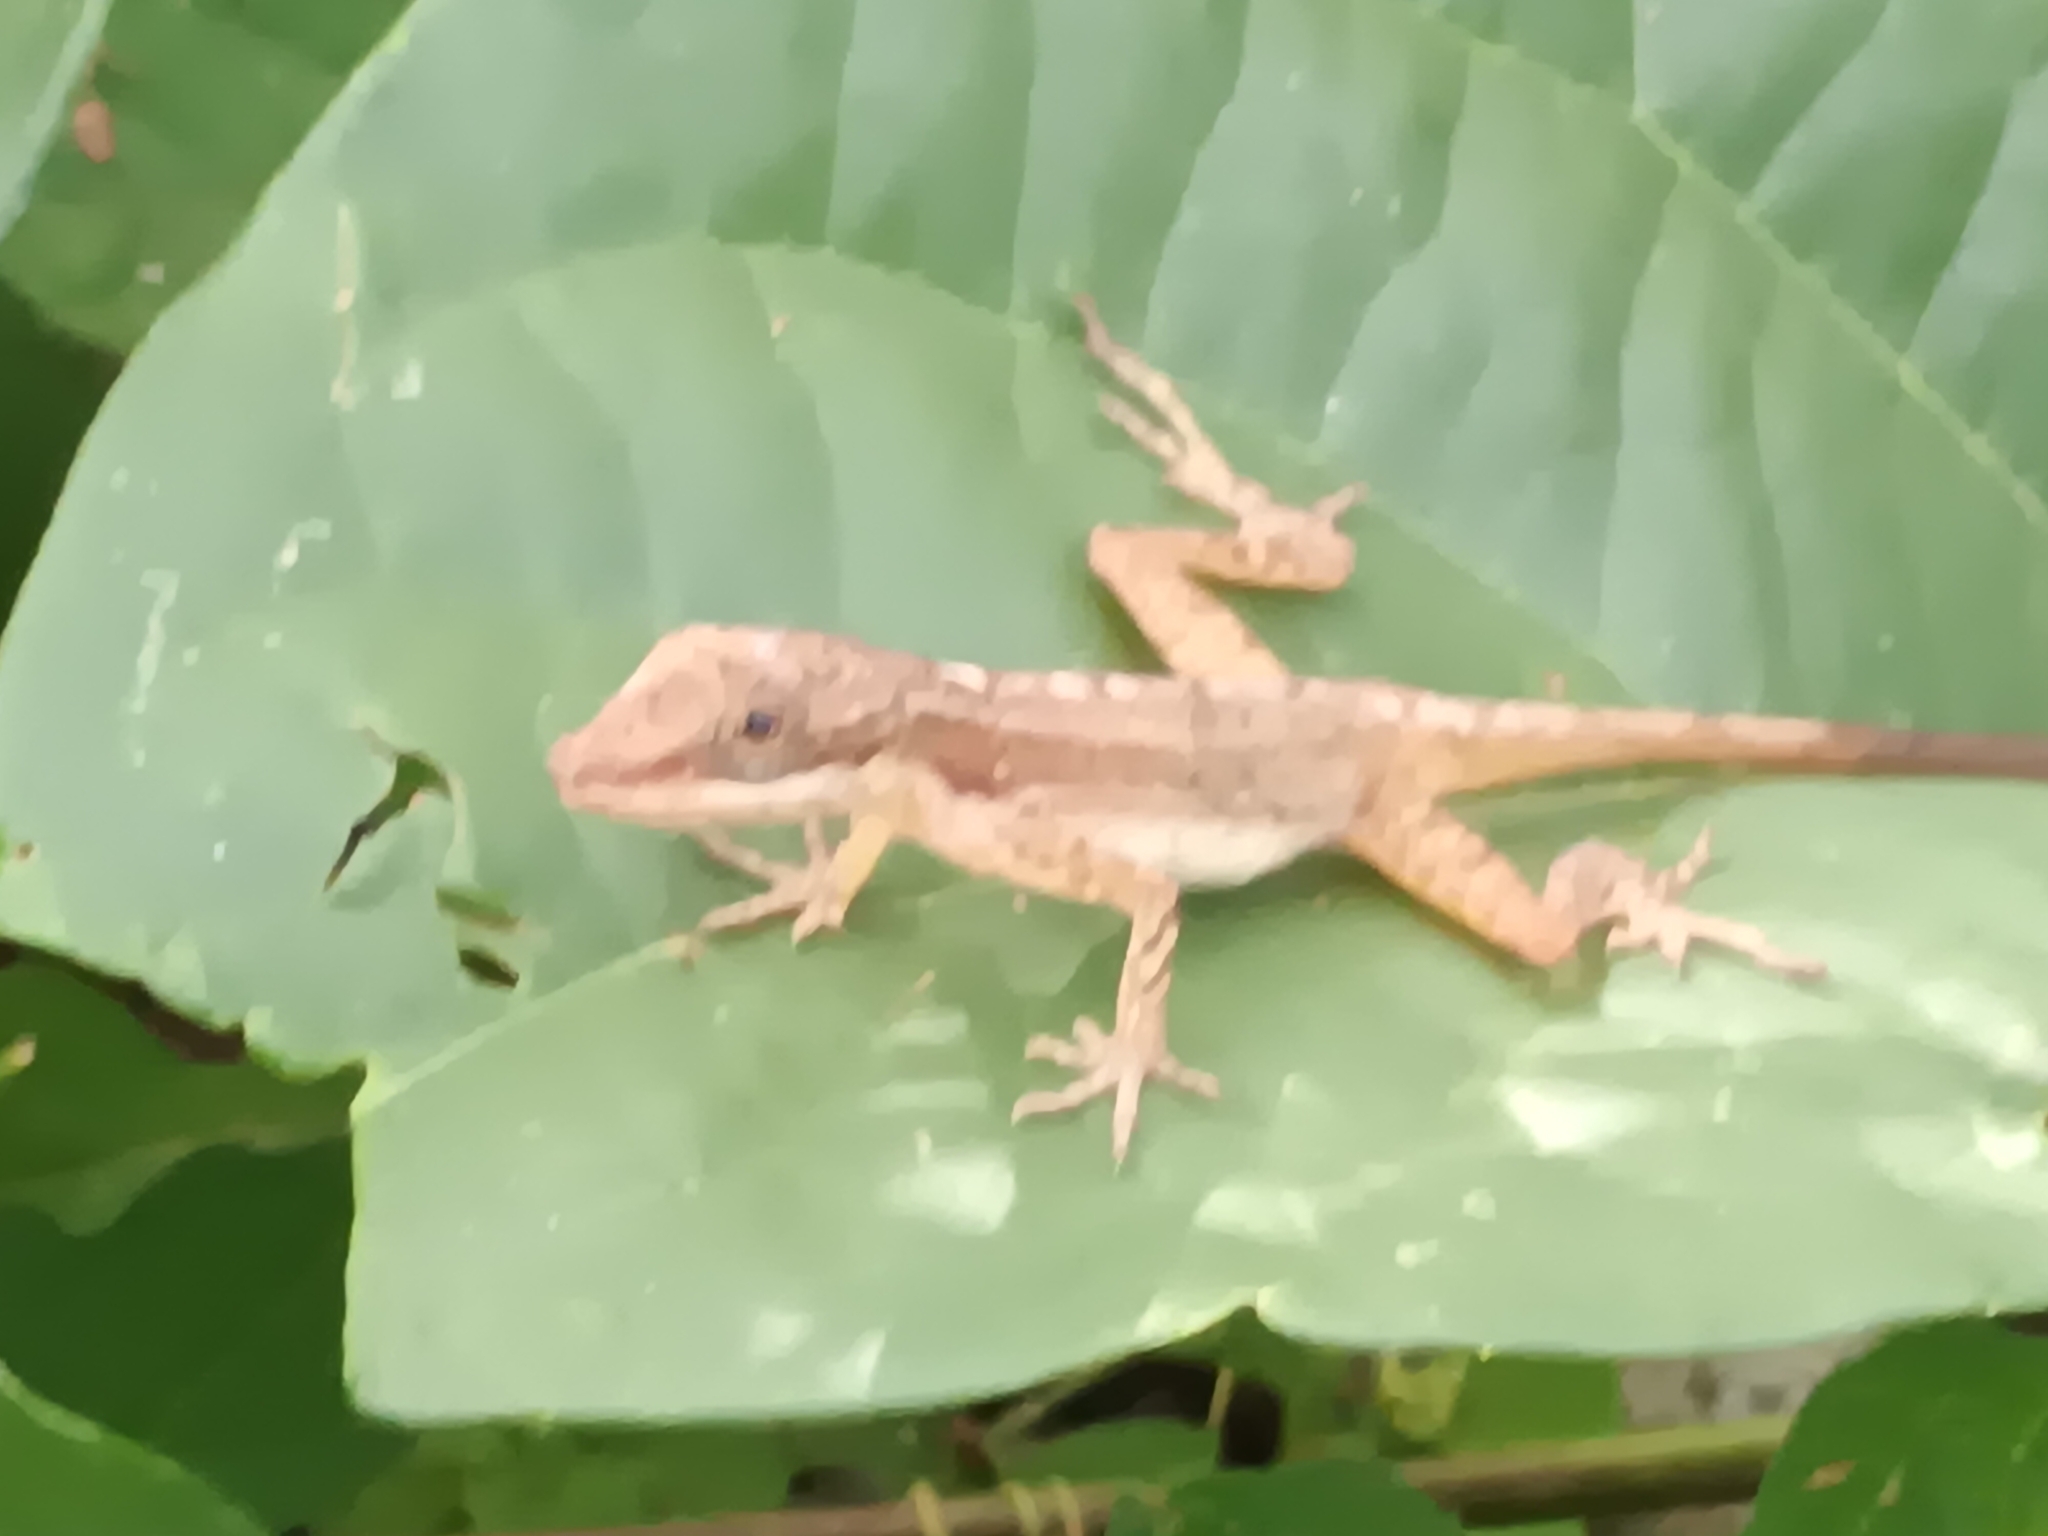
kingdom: Animalia
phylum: Chordata
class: Squamata
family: Dactyloidae
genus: Anolis
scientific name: Anolis limifrons
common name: Border anole
